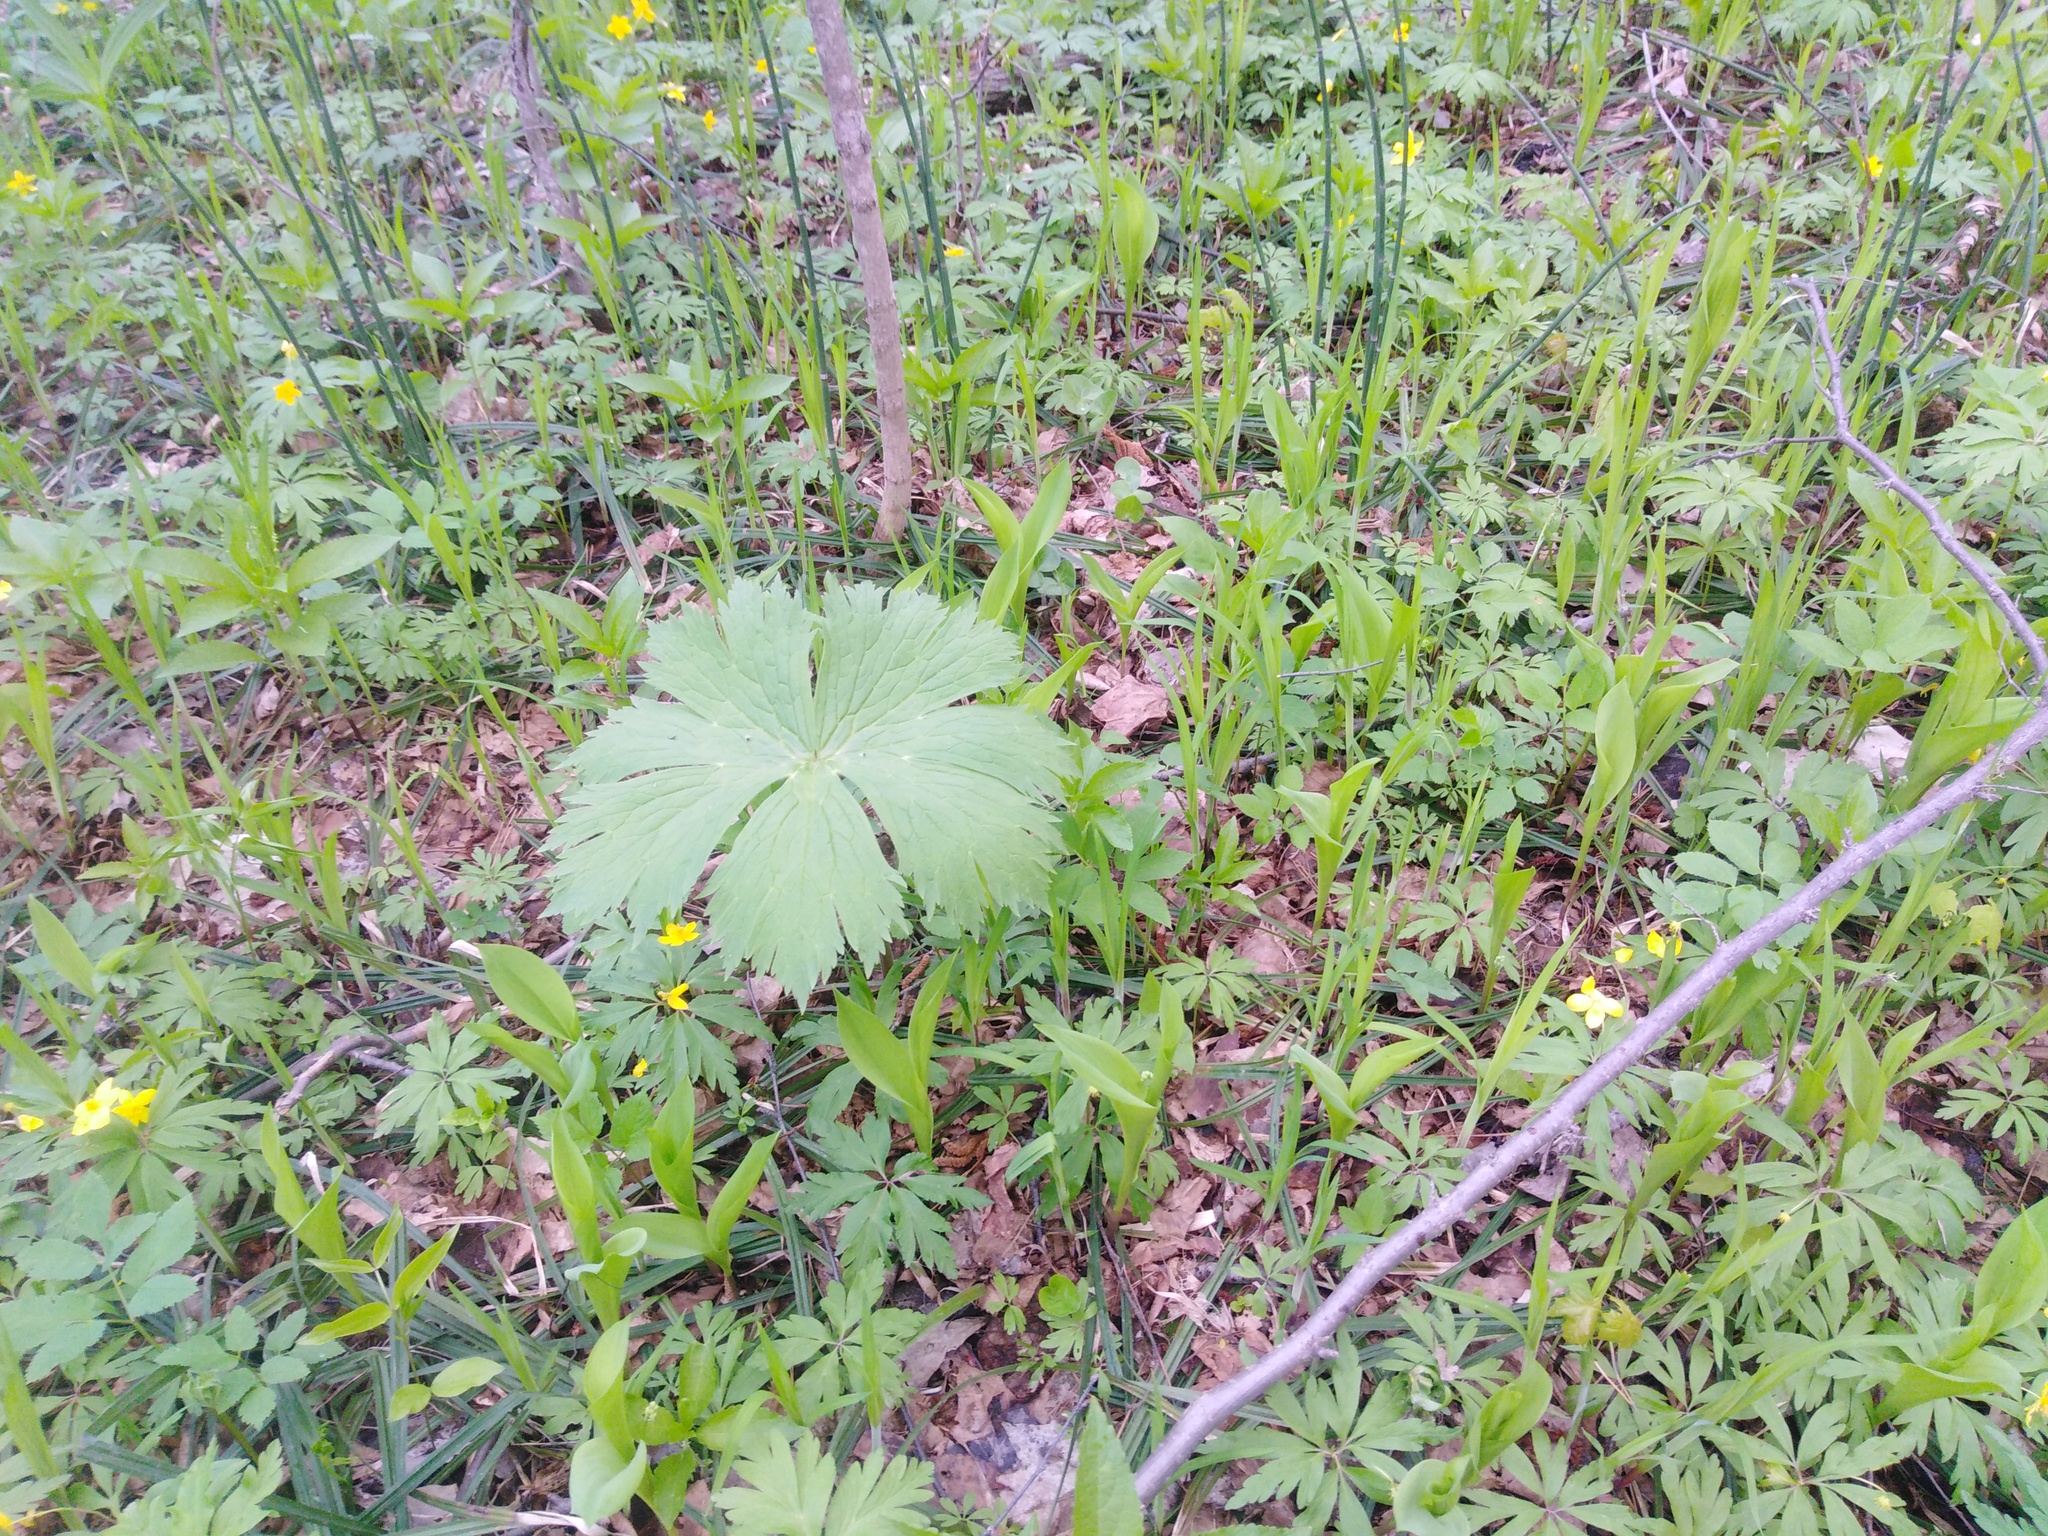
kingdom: Plantae
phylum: Tracheophyta
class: Magnoliopsida
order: Ranunculales
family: Ranunculaceae
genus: Aconitum
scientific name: Aconitum septentrionale
